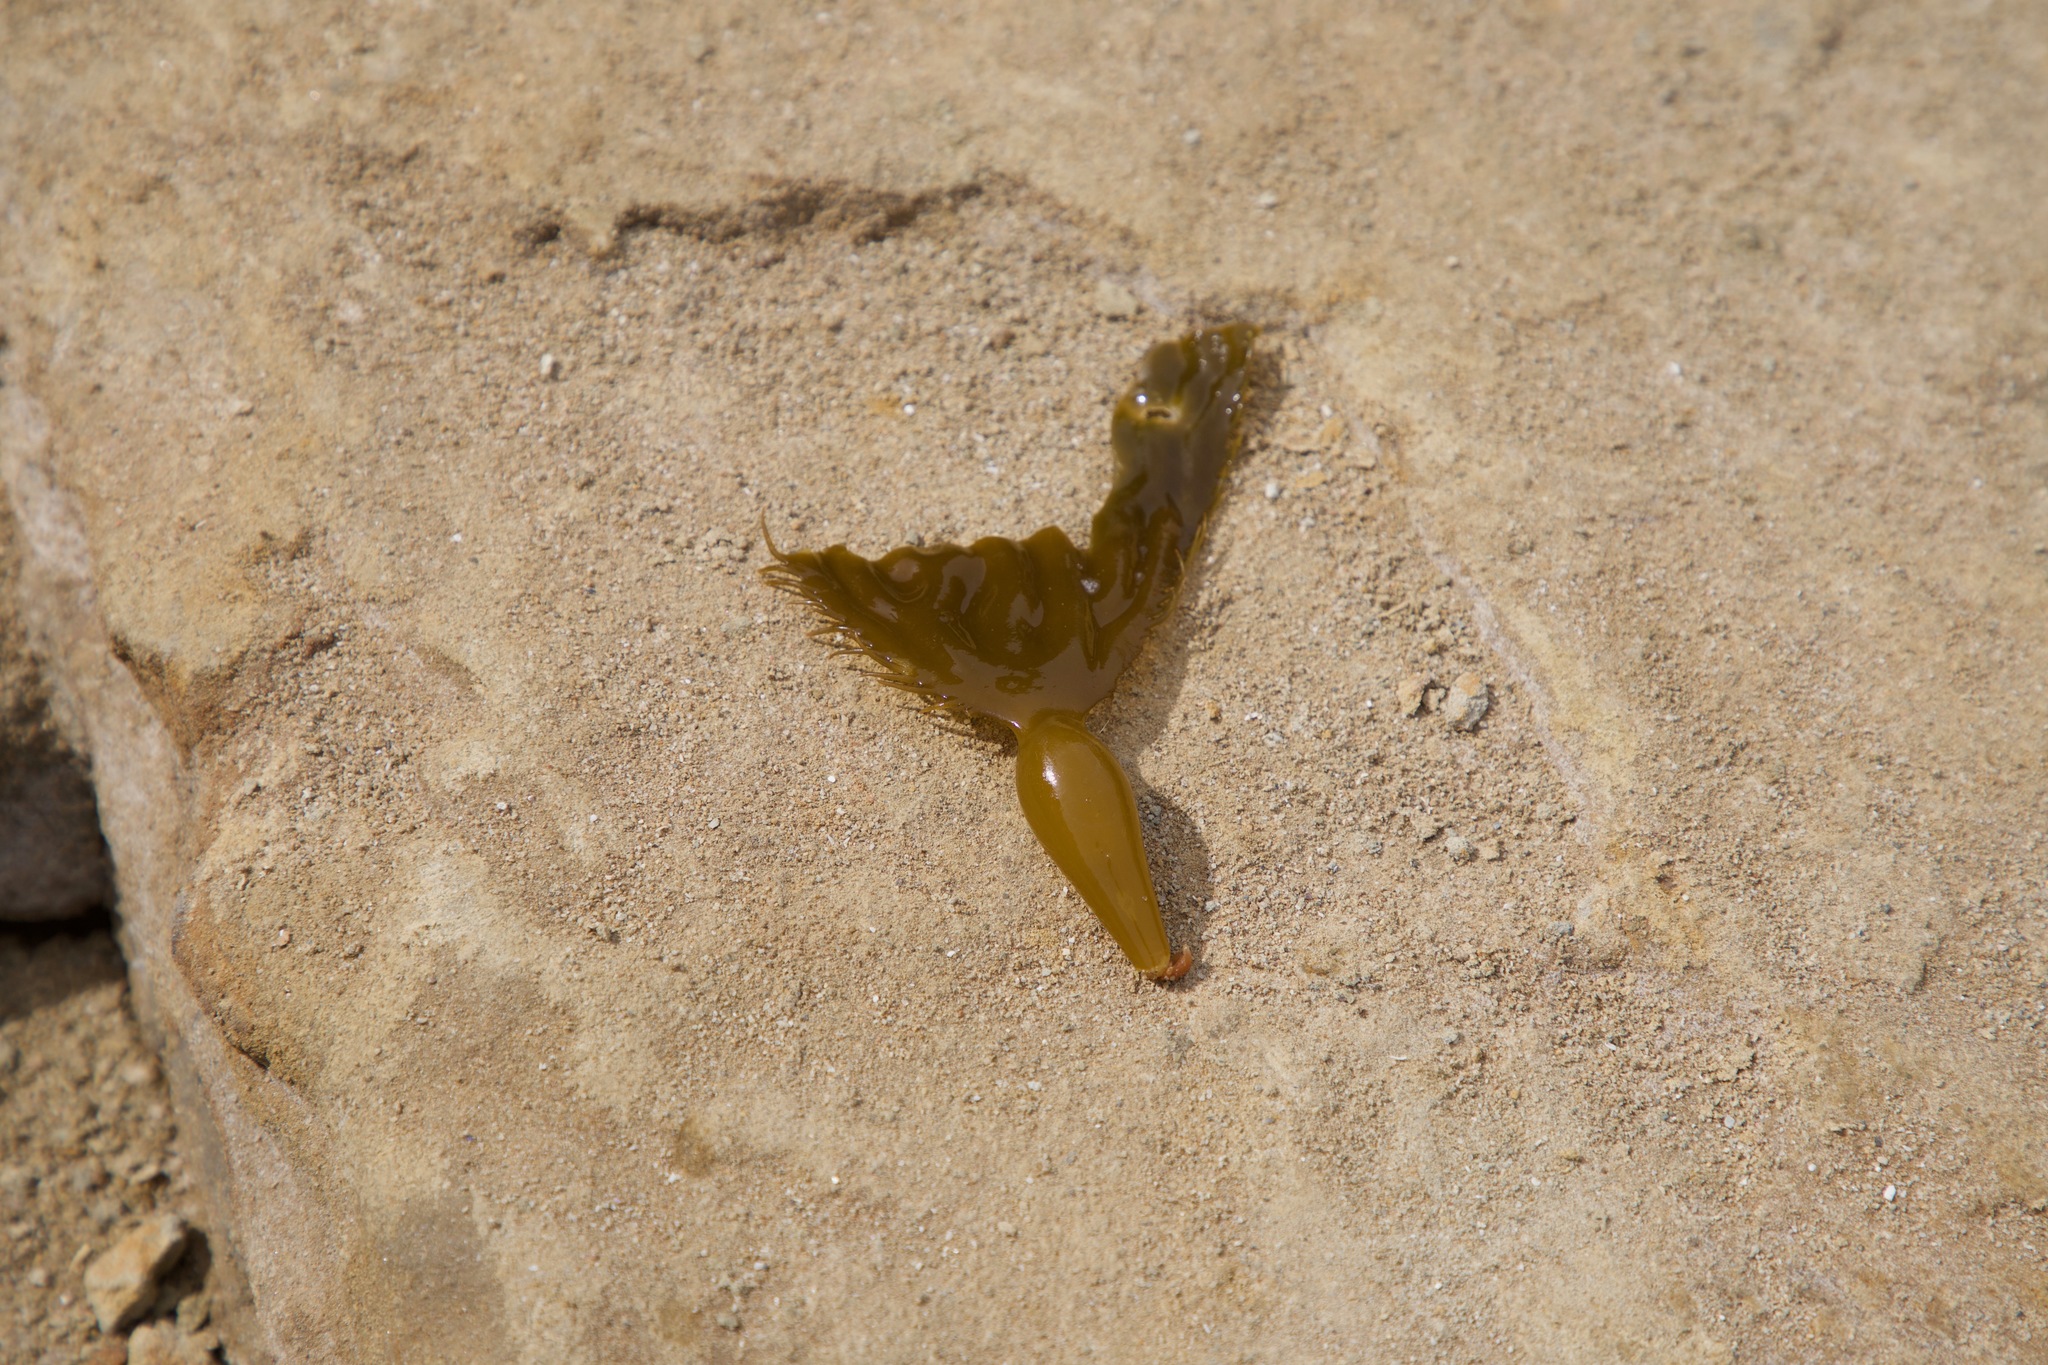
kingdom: Chromista
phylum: Ochrophyta
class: Phaeophyceae
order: Laminariales
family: Laminariaceae
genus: Macrocystis
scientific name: Macrocystis pyrifera
